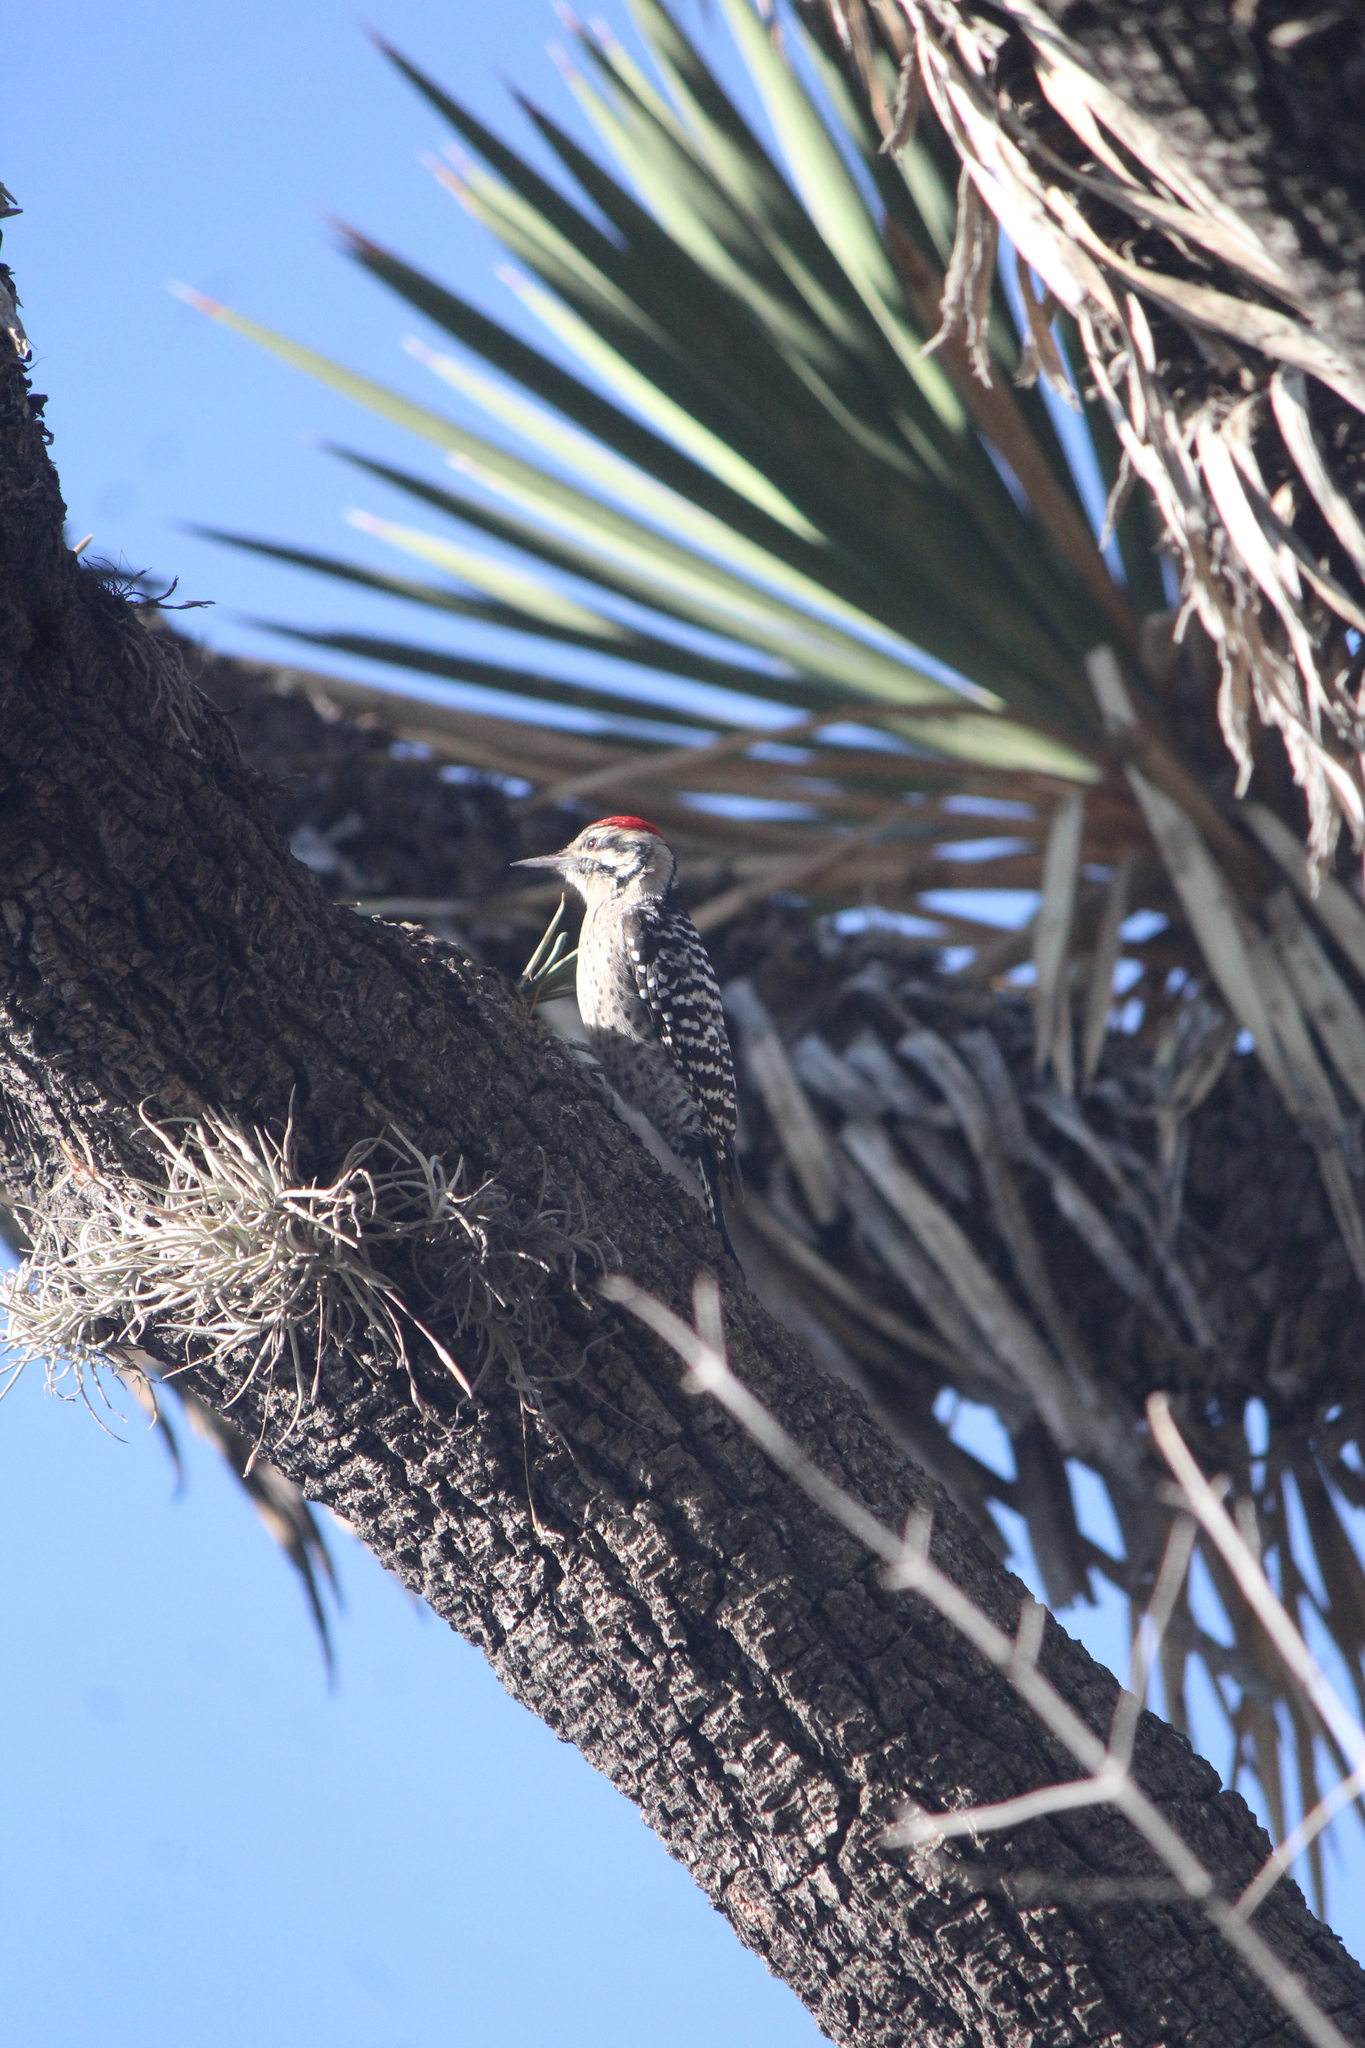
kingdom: Animalia
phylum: Chordata
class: Aves
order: Piciformes
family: Picidae
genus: Dryobates
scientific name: Dryobates scalaris
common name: Ladder-backed woodpecker
